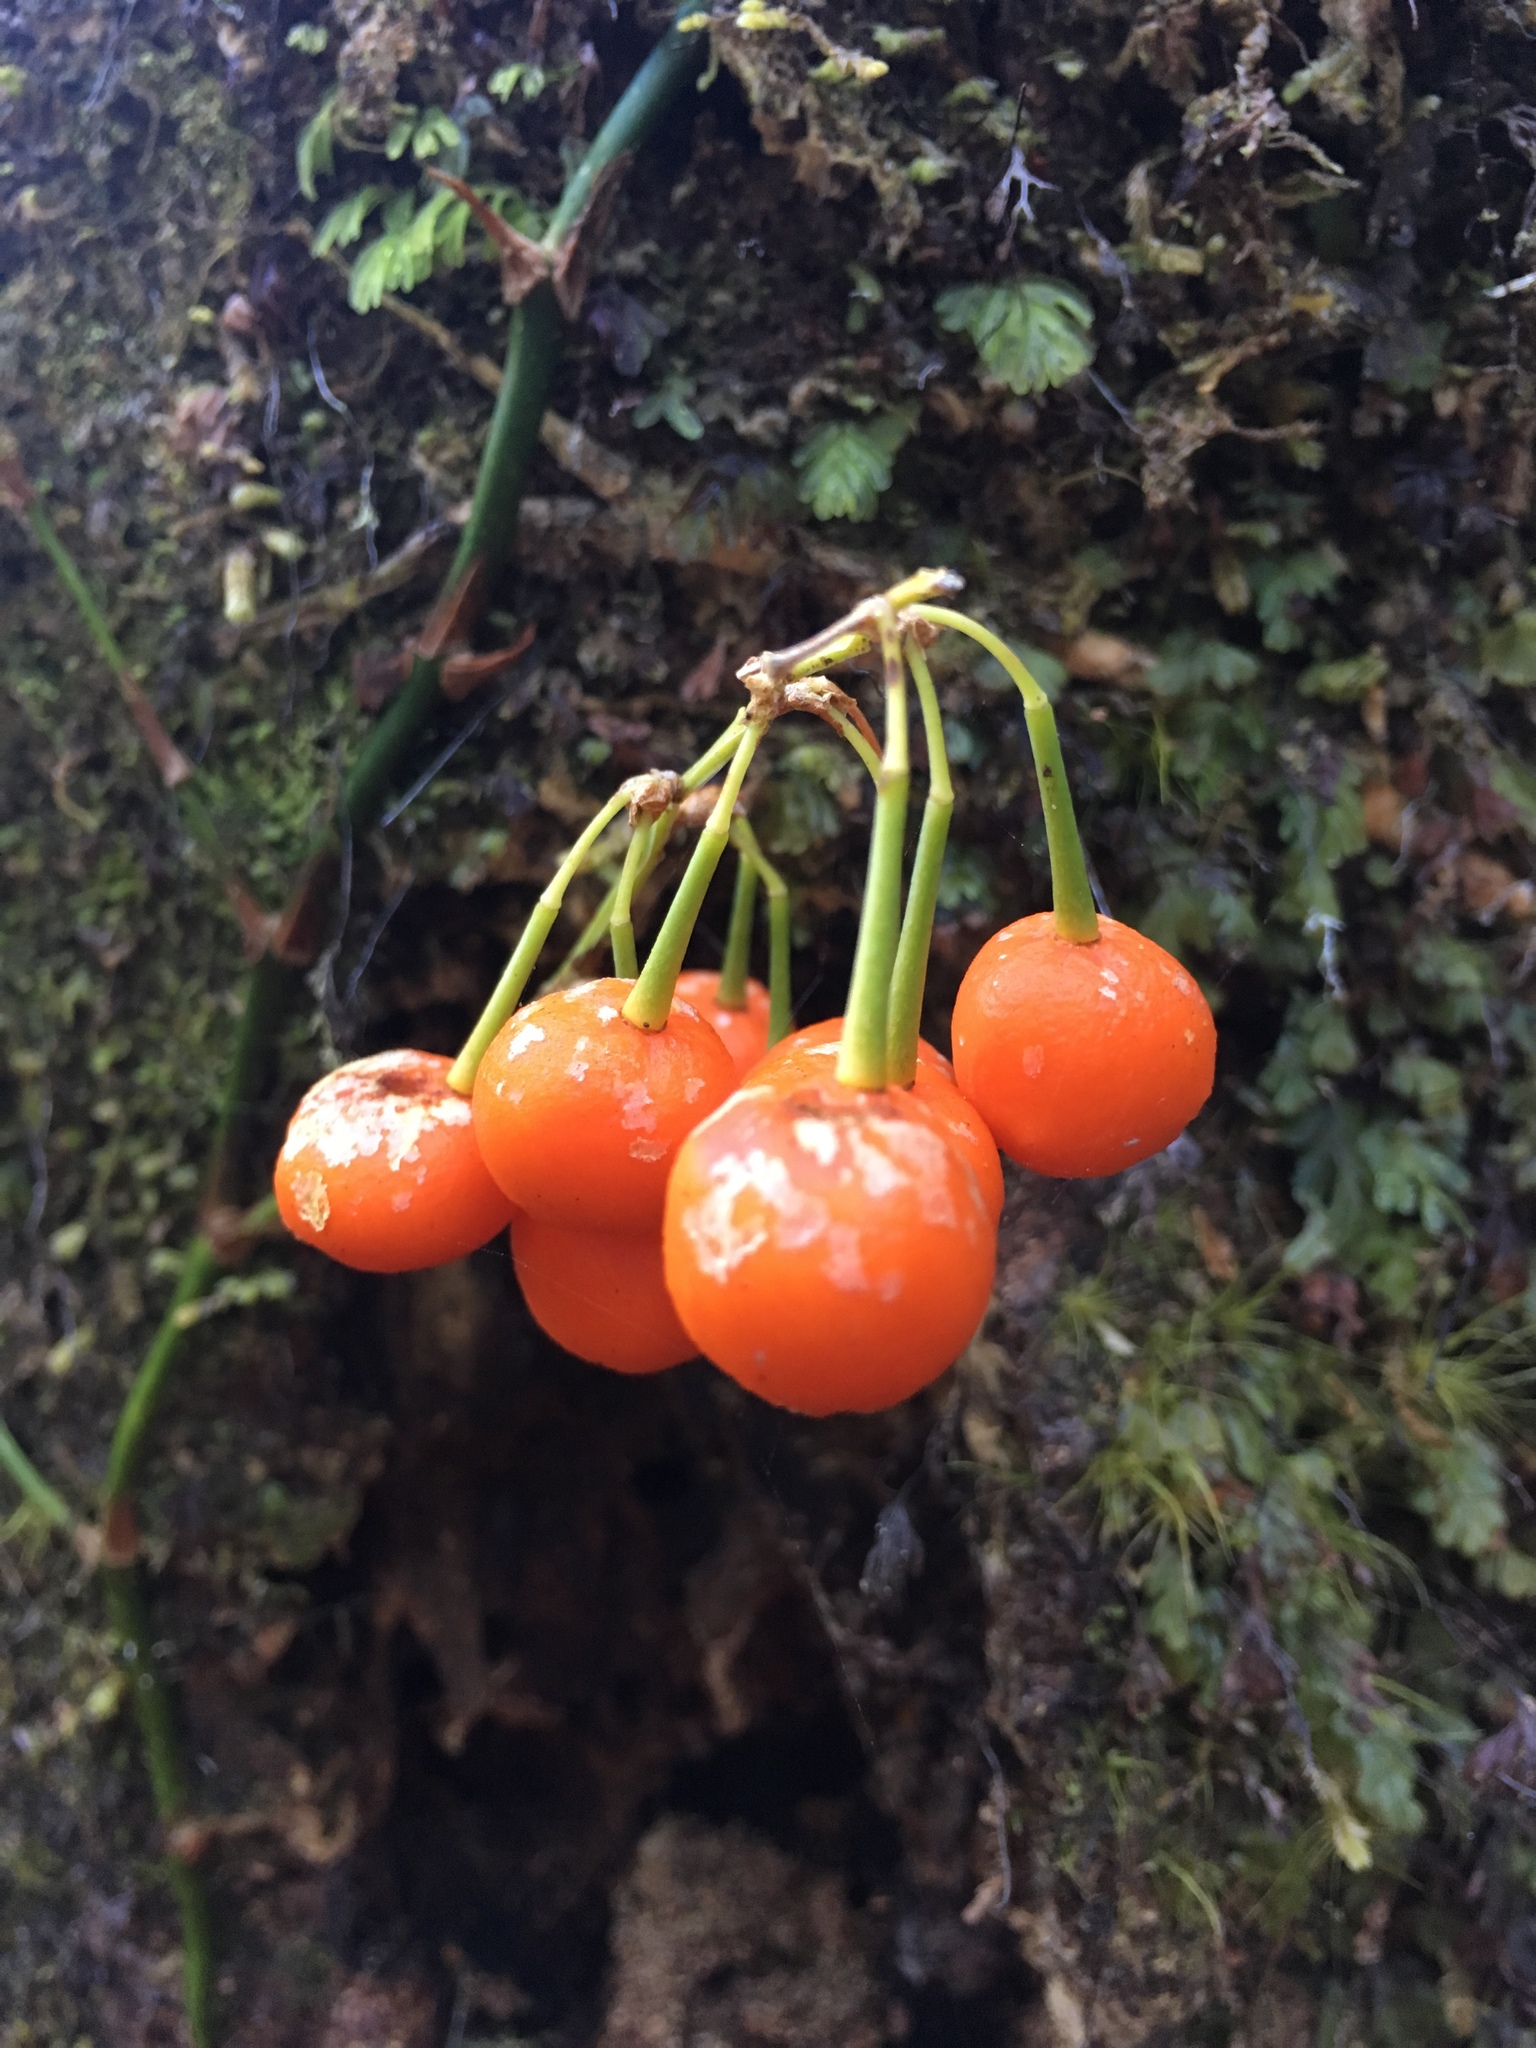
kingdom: Plantae
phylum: Tracheophyta
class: Liliopsida
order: Liliales
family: Alstroemeriaceae
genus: Luzuriaga
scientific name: Luzuriaga radicans
